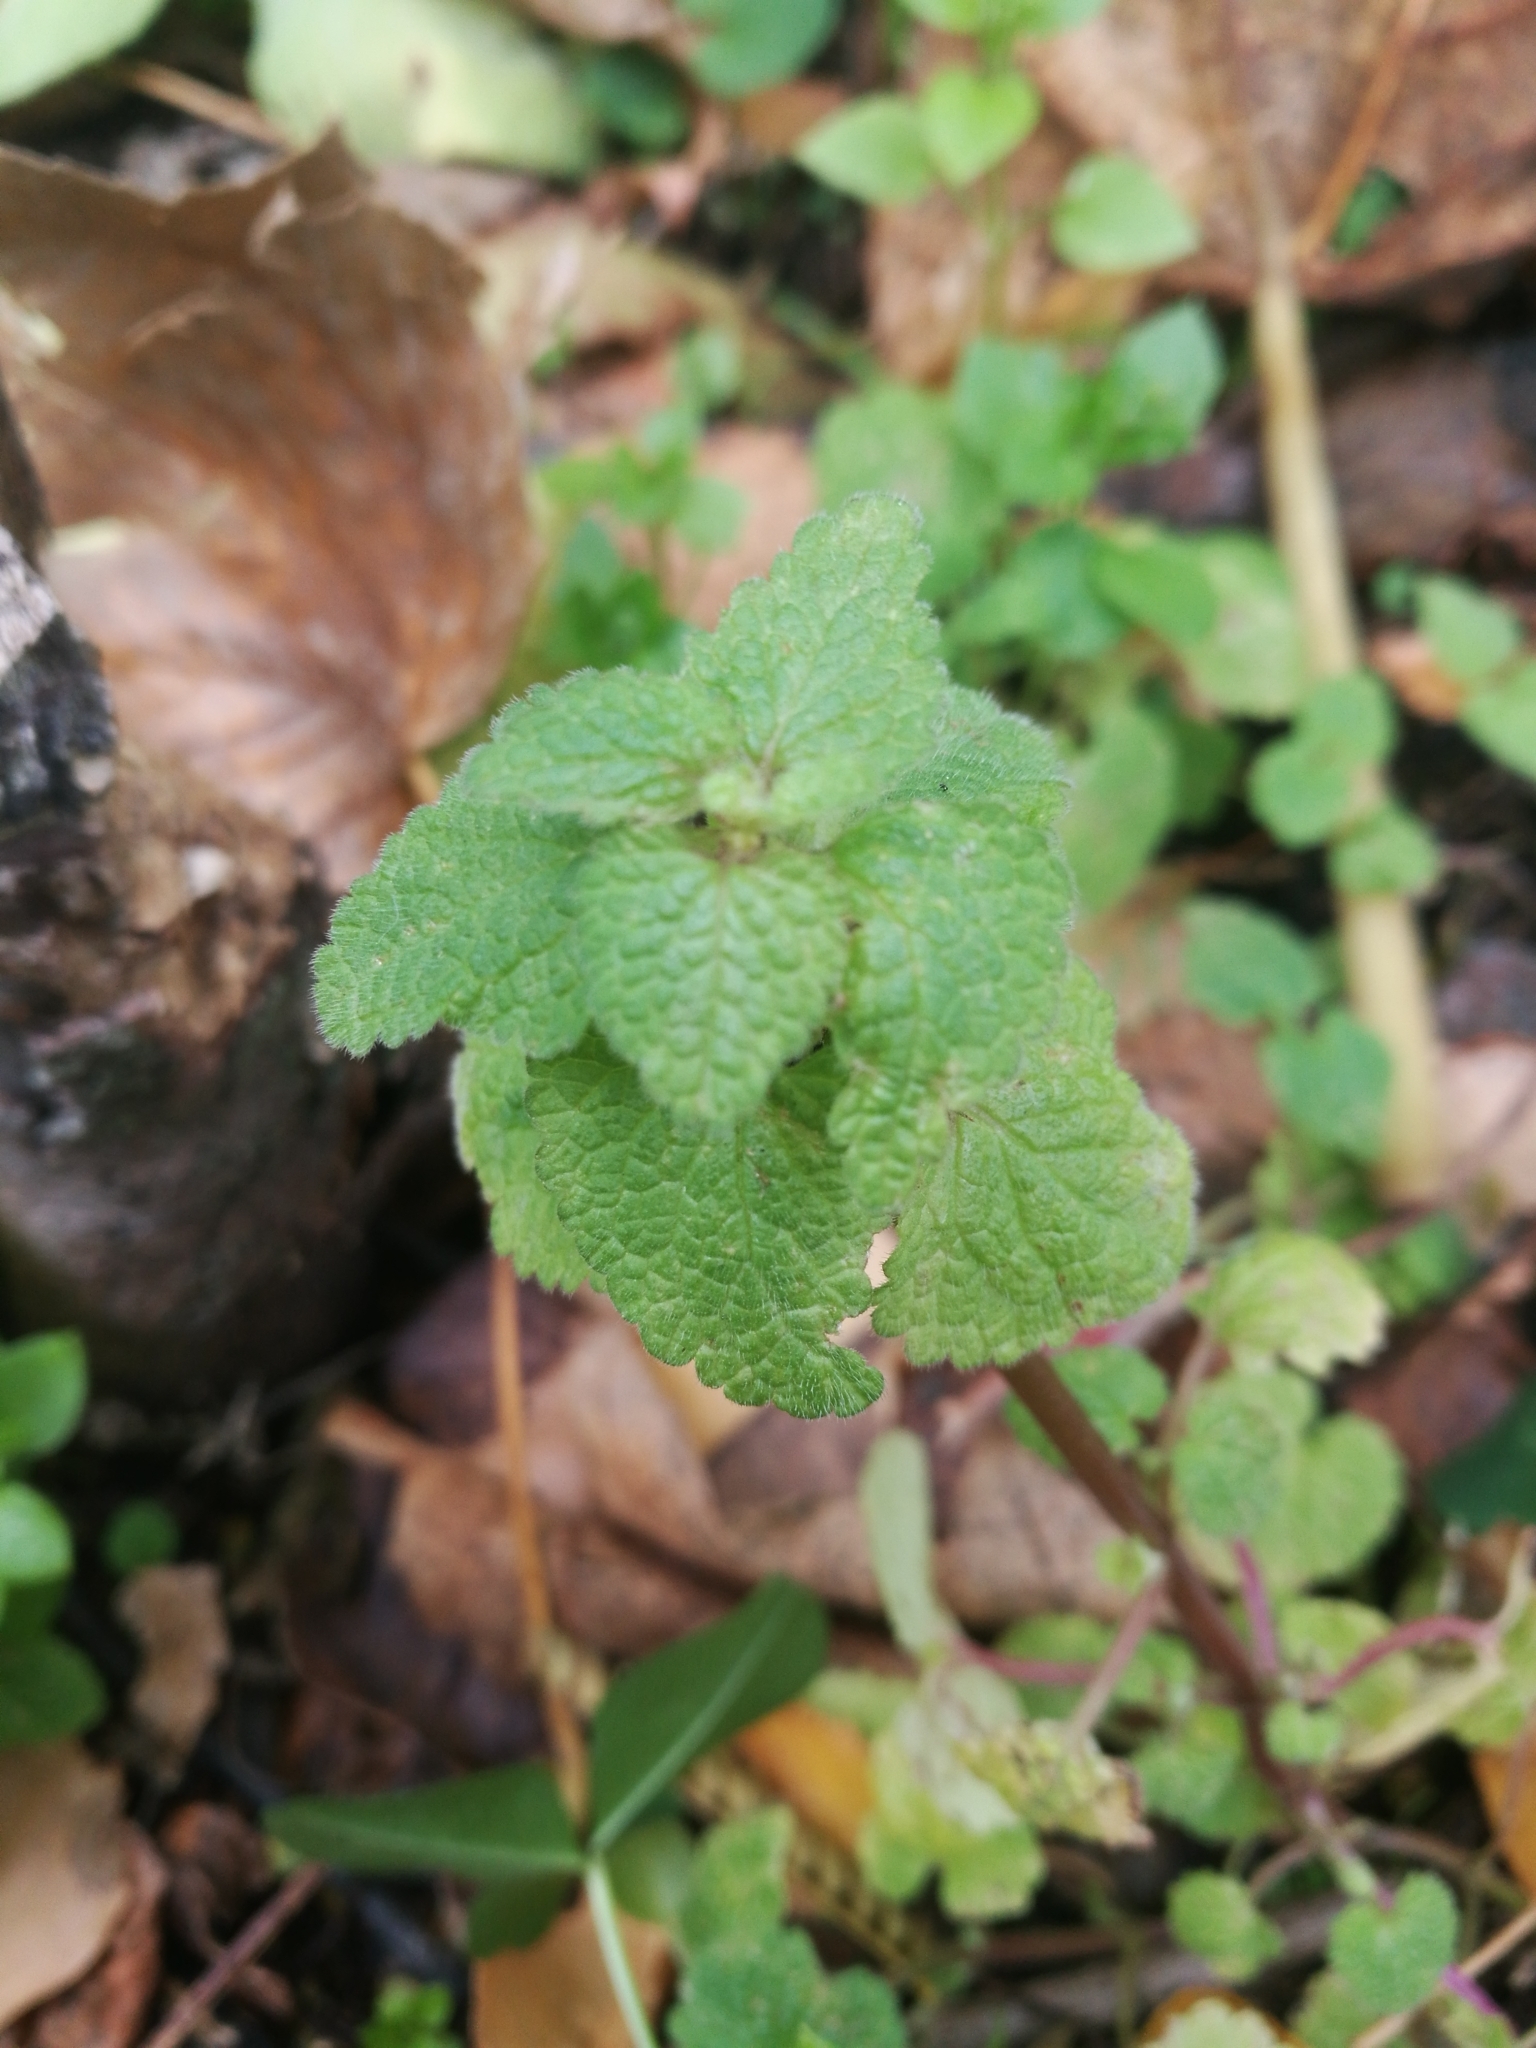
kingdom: Plantae
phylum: Tracheophyta
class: Magnoliopsida
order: Lamiales
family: Lamiaceae
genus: Lamium
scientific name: Lamium purpureum
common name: Red dead-nettle
